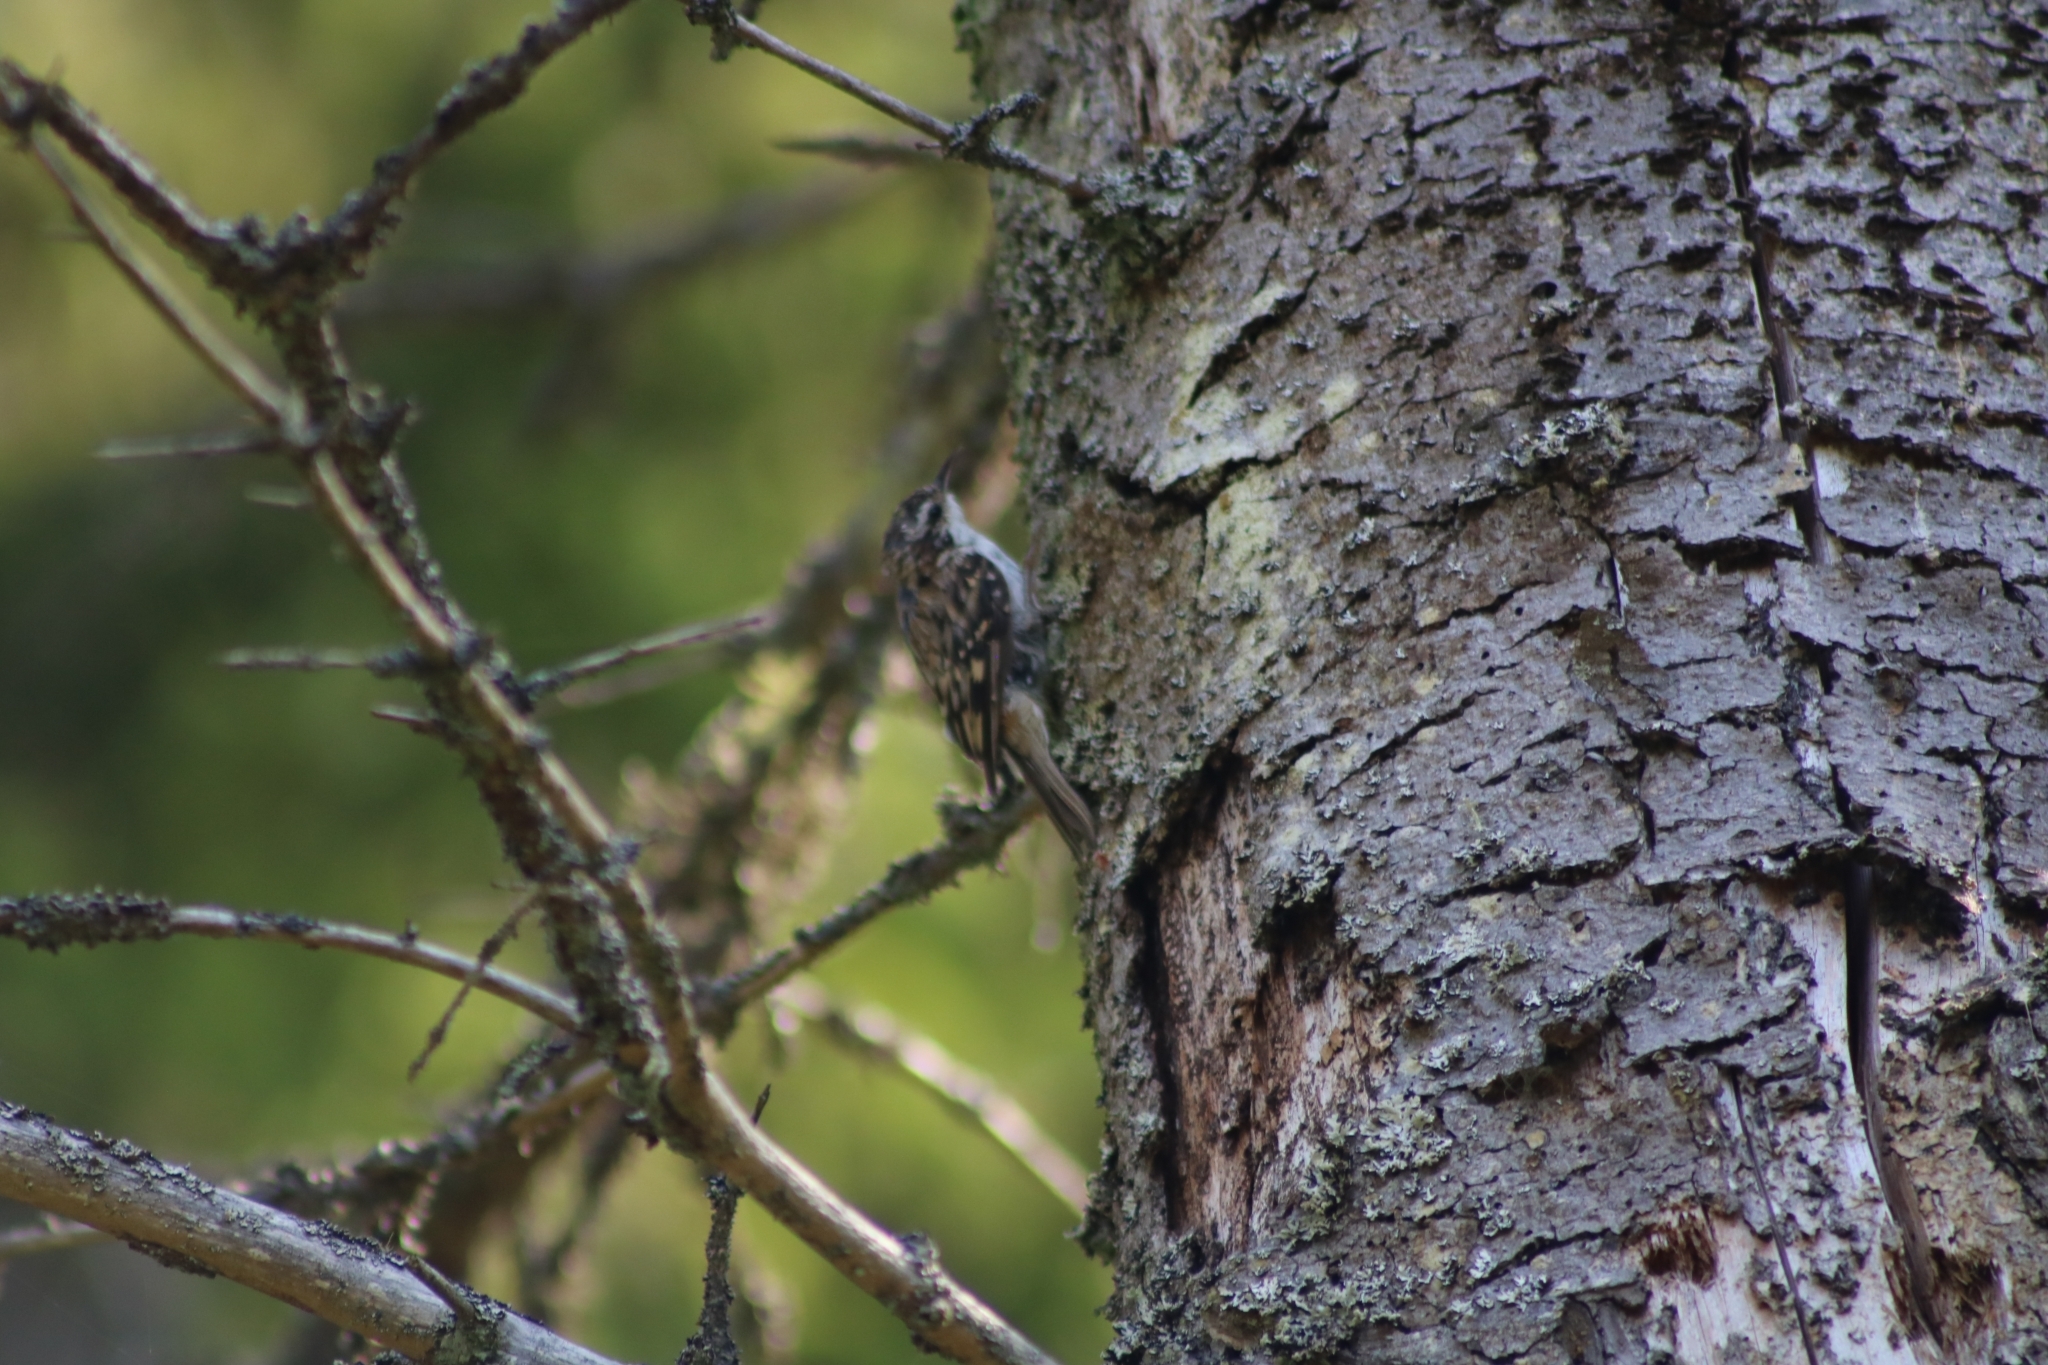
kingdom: Animalia
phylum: Chordata
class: Aves
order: Passeriformes
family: Certhiidae
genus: Certhia
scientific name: Certhia familiaris
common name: Eurasian treecreeper
